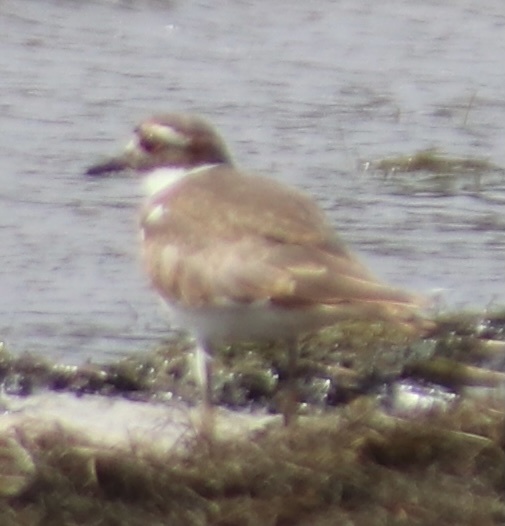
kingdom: Animalia
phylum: Chordata
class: Aves
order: Charadriiformes
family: Charadriidae
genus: Charadrius
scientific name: Charadrius vociferus
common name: Killdeer
